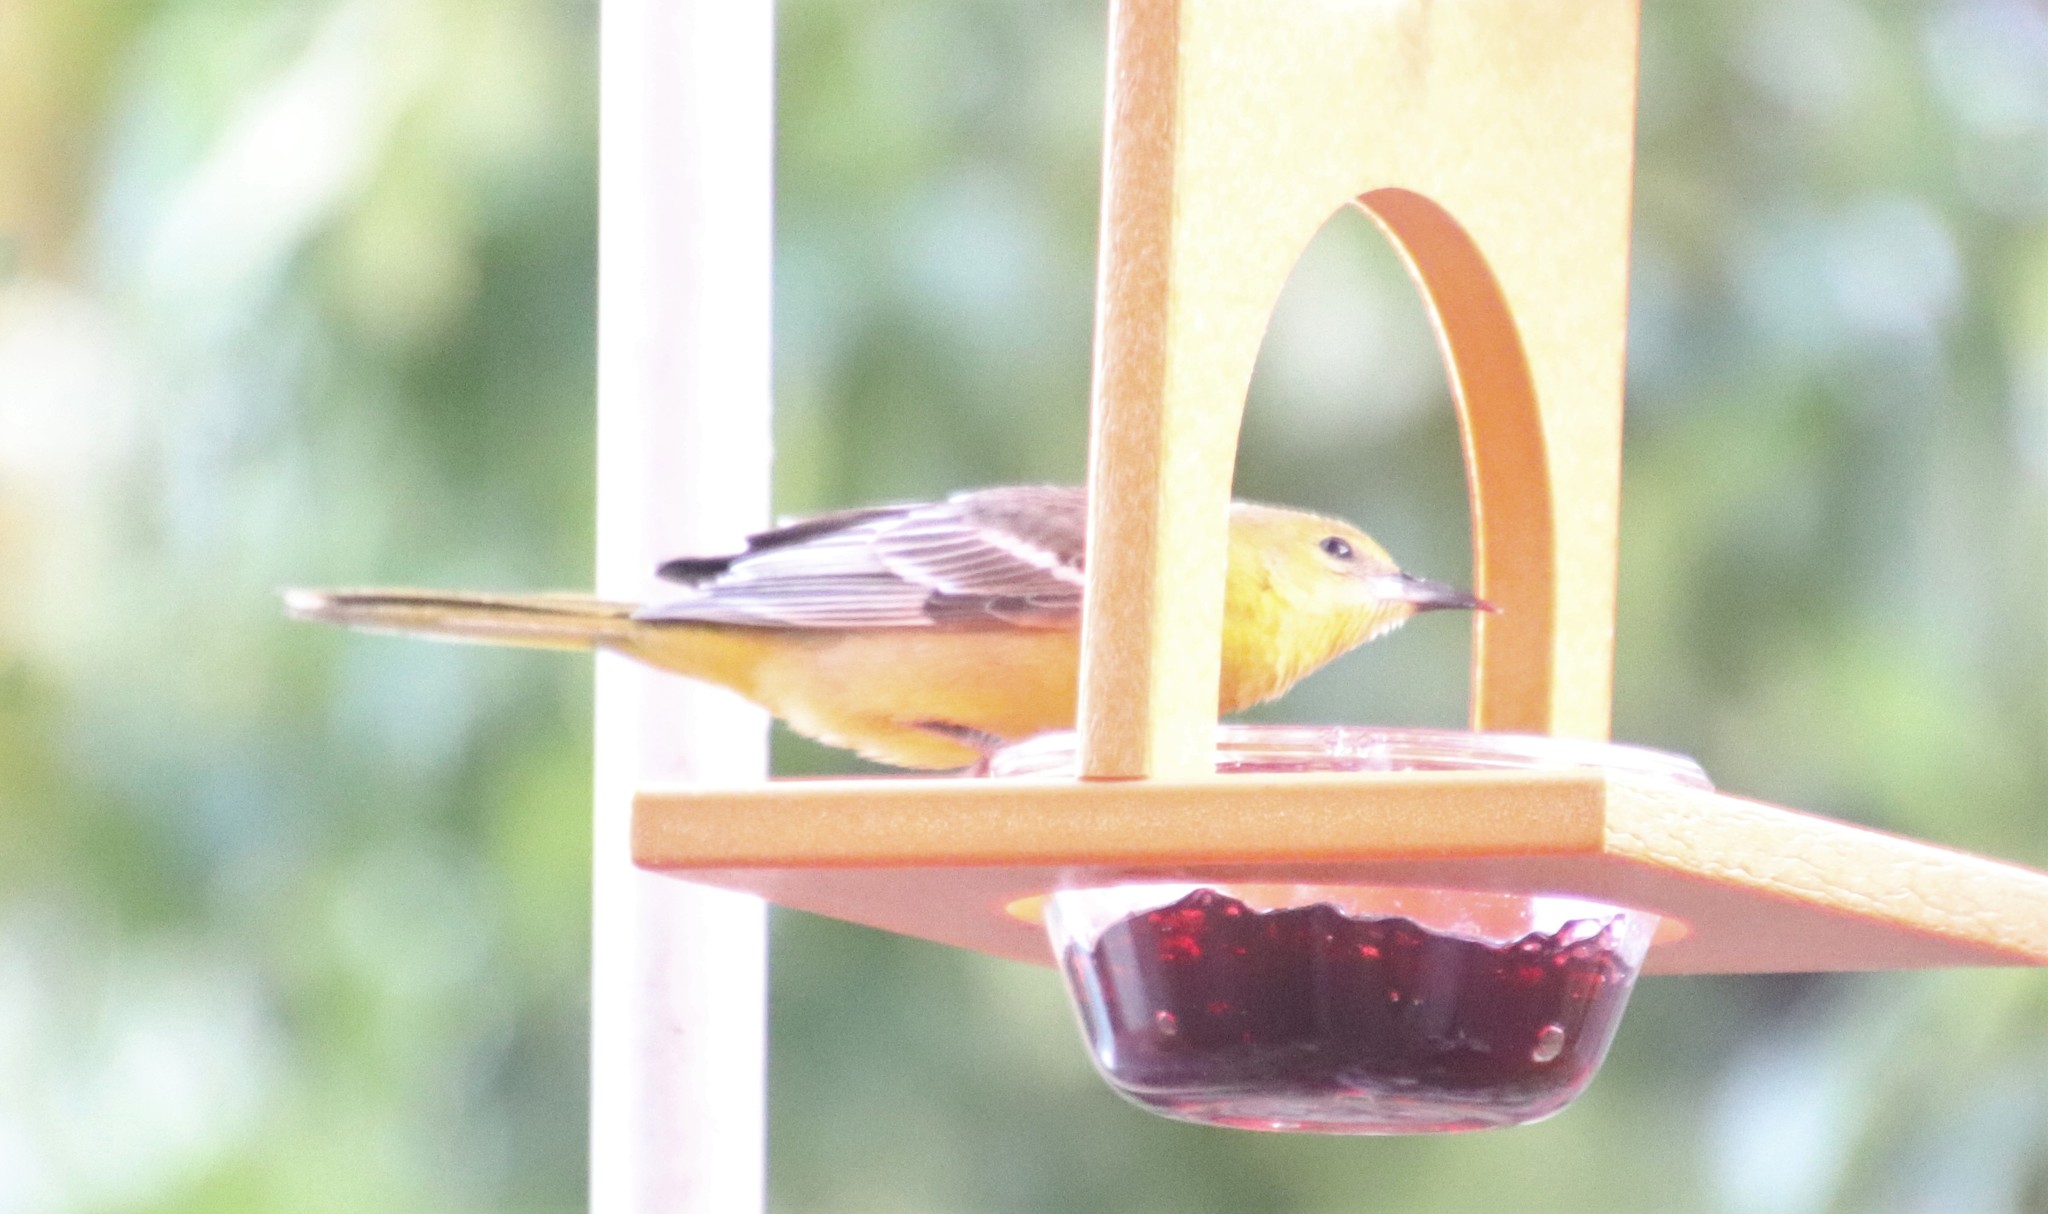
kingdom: Animalia
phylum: Chordata
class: Aves
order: Passeriformes
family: Icteridae
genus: Icterus
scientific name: Icterus cucullatus
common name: Hooded oriole
